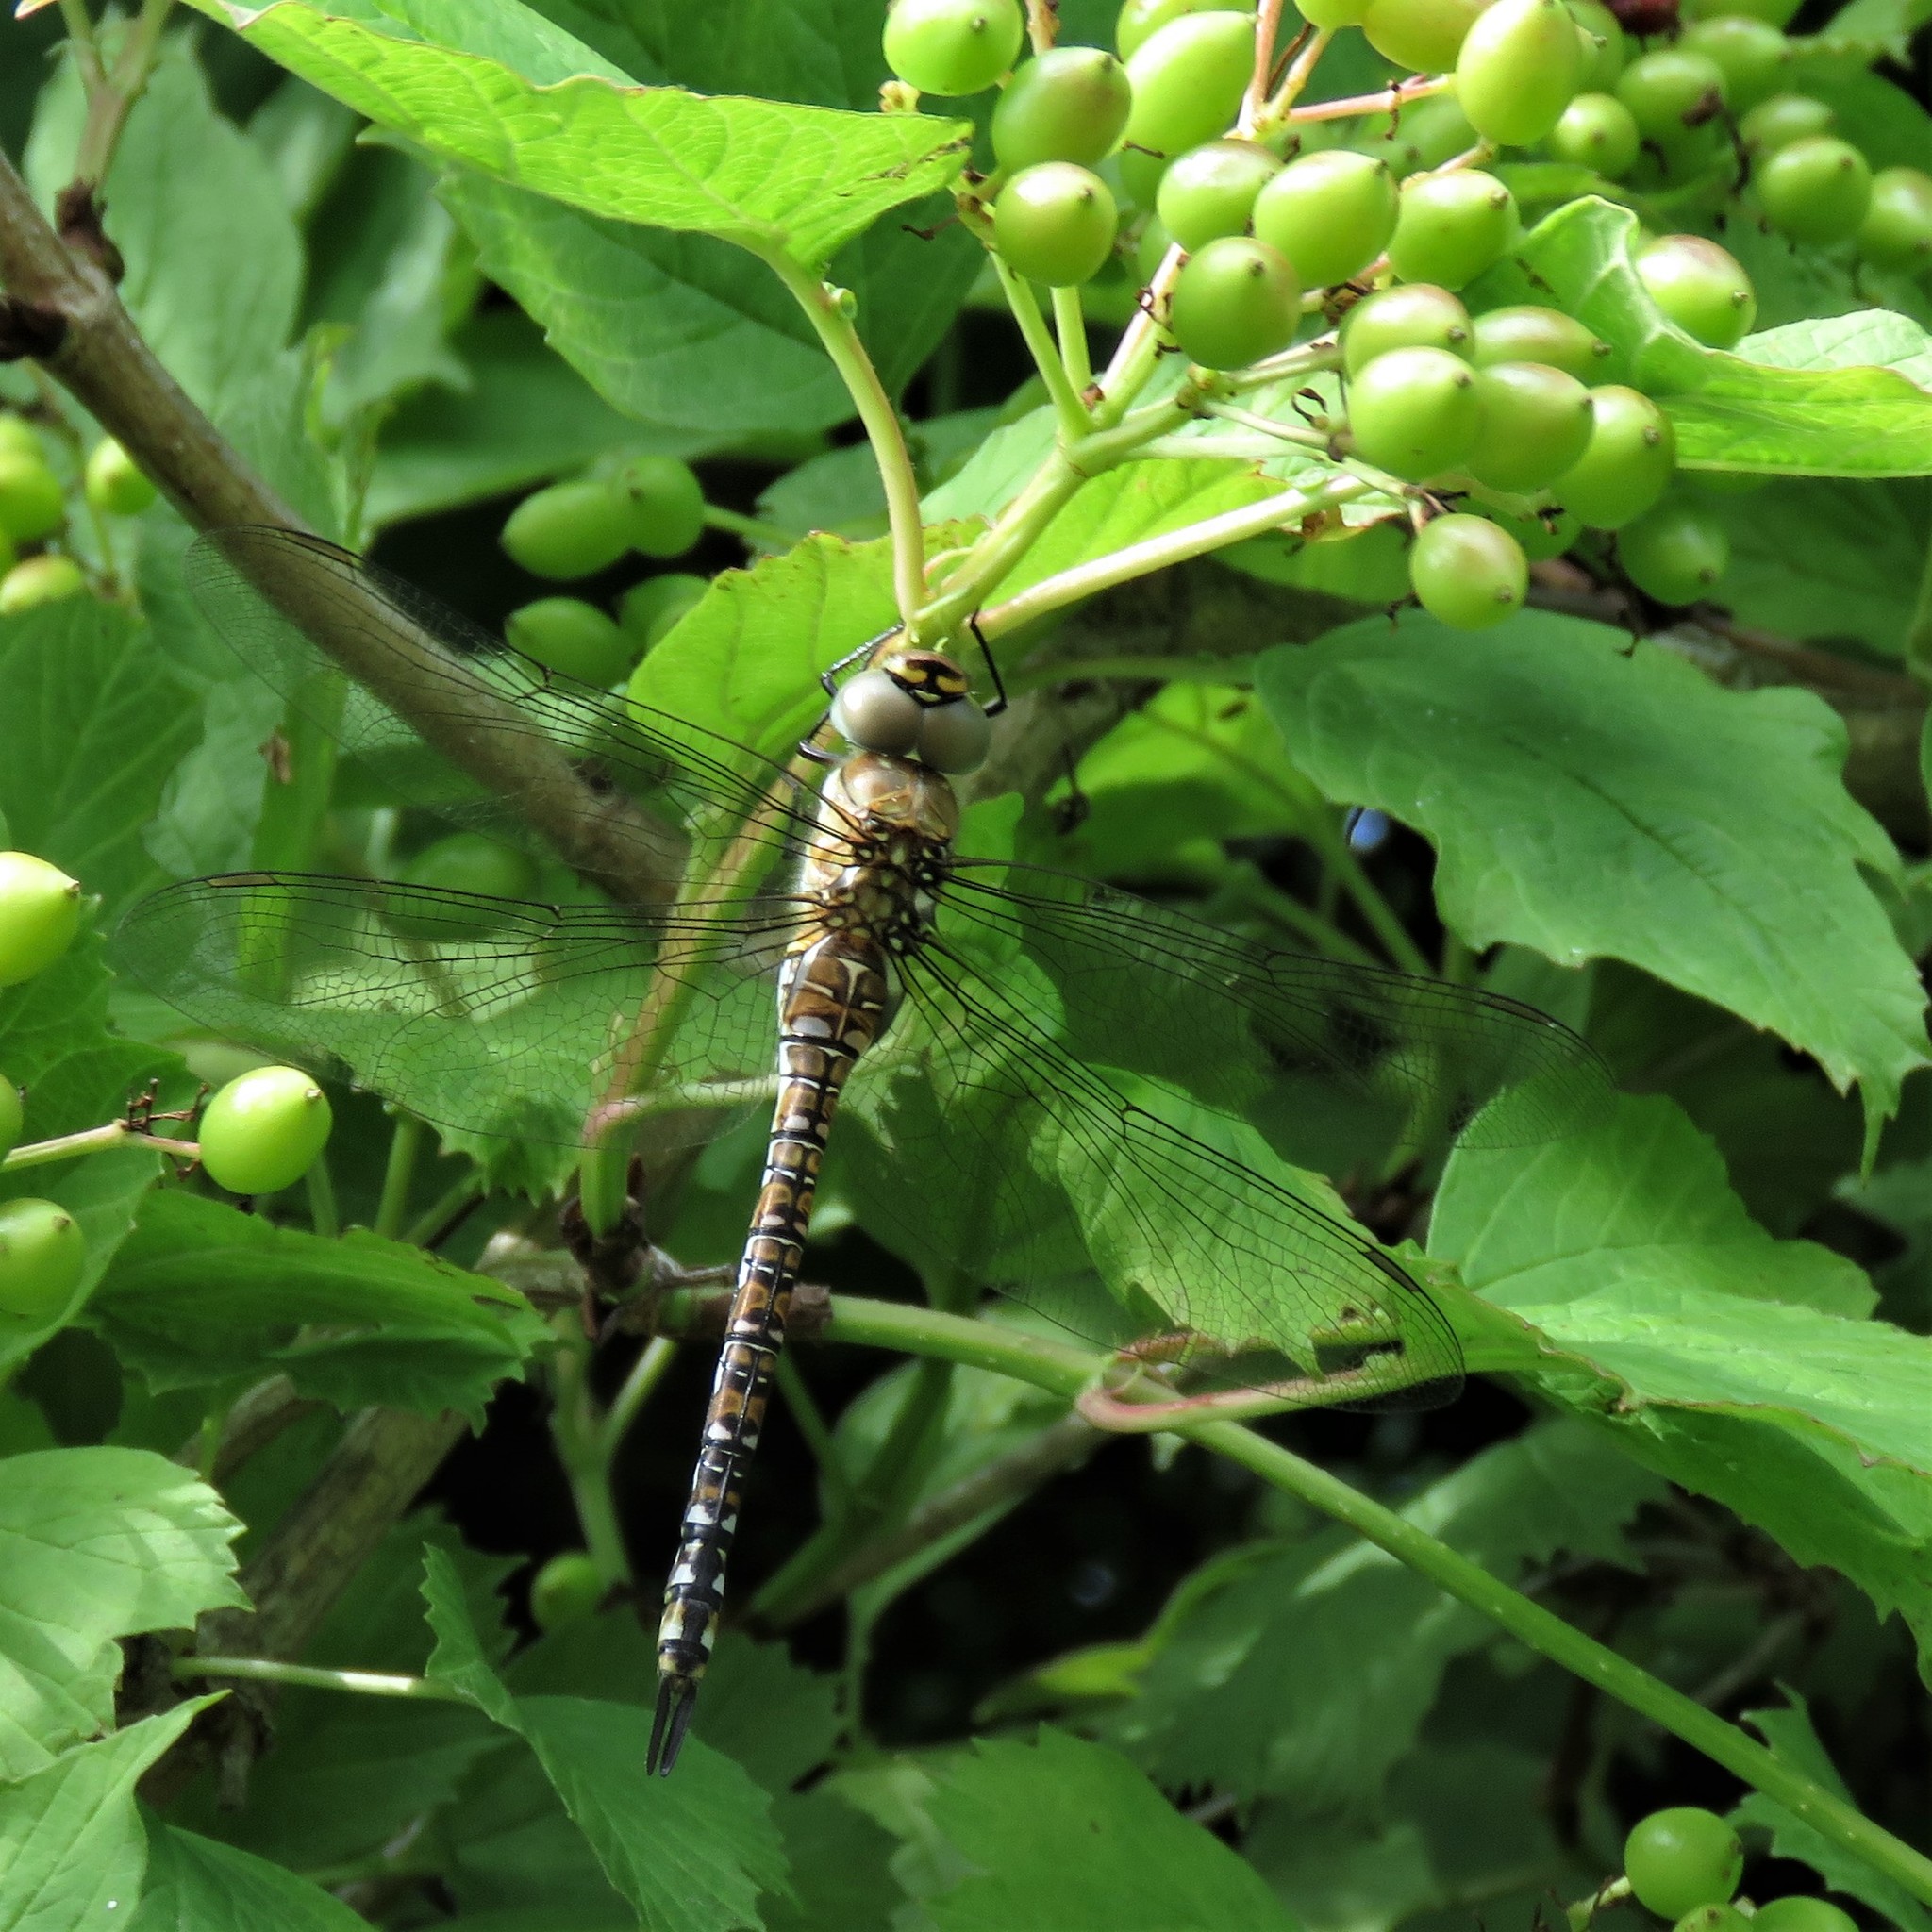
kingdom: Animalia
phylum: Arthropoda
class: Insecta
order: Odonata
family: Aeshnidae
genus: Aeshna
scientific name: Aeshna mixta
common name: Migrant hawker
